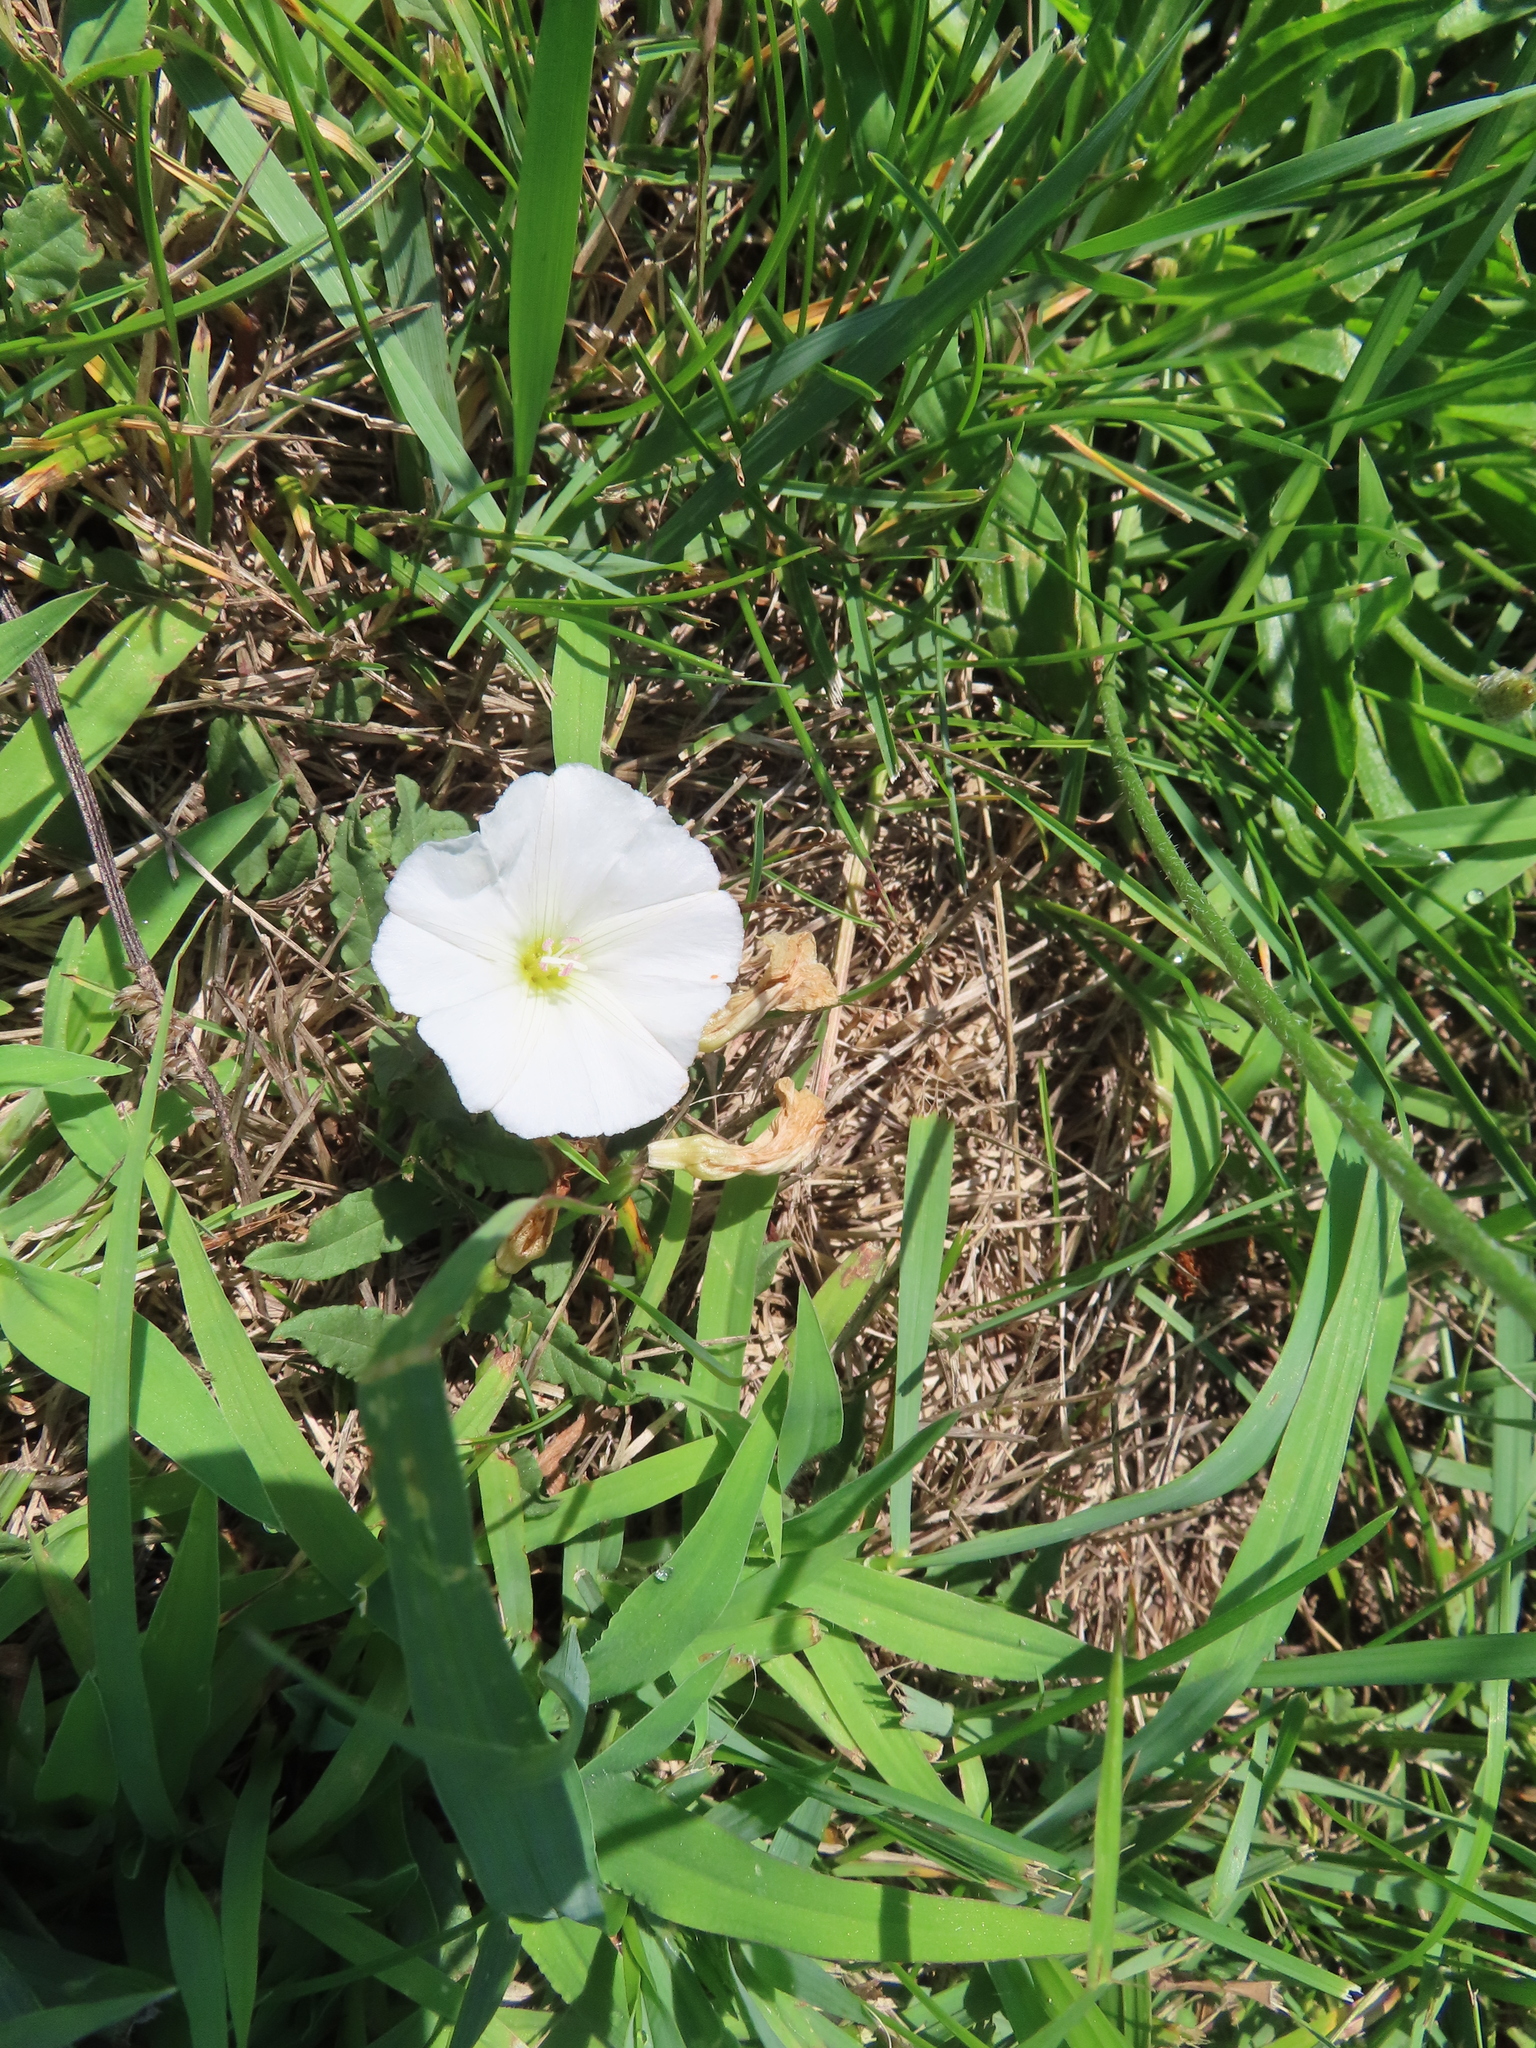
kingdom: Plantae
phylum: Tracheophyta
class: Magnoliopsida
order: Solanales
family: Convolvulaceae
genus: Convolvulus
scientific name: Convolvulus arvensis
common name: Field bindweed
